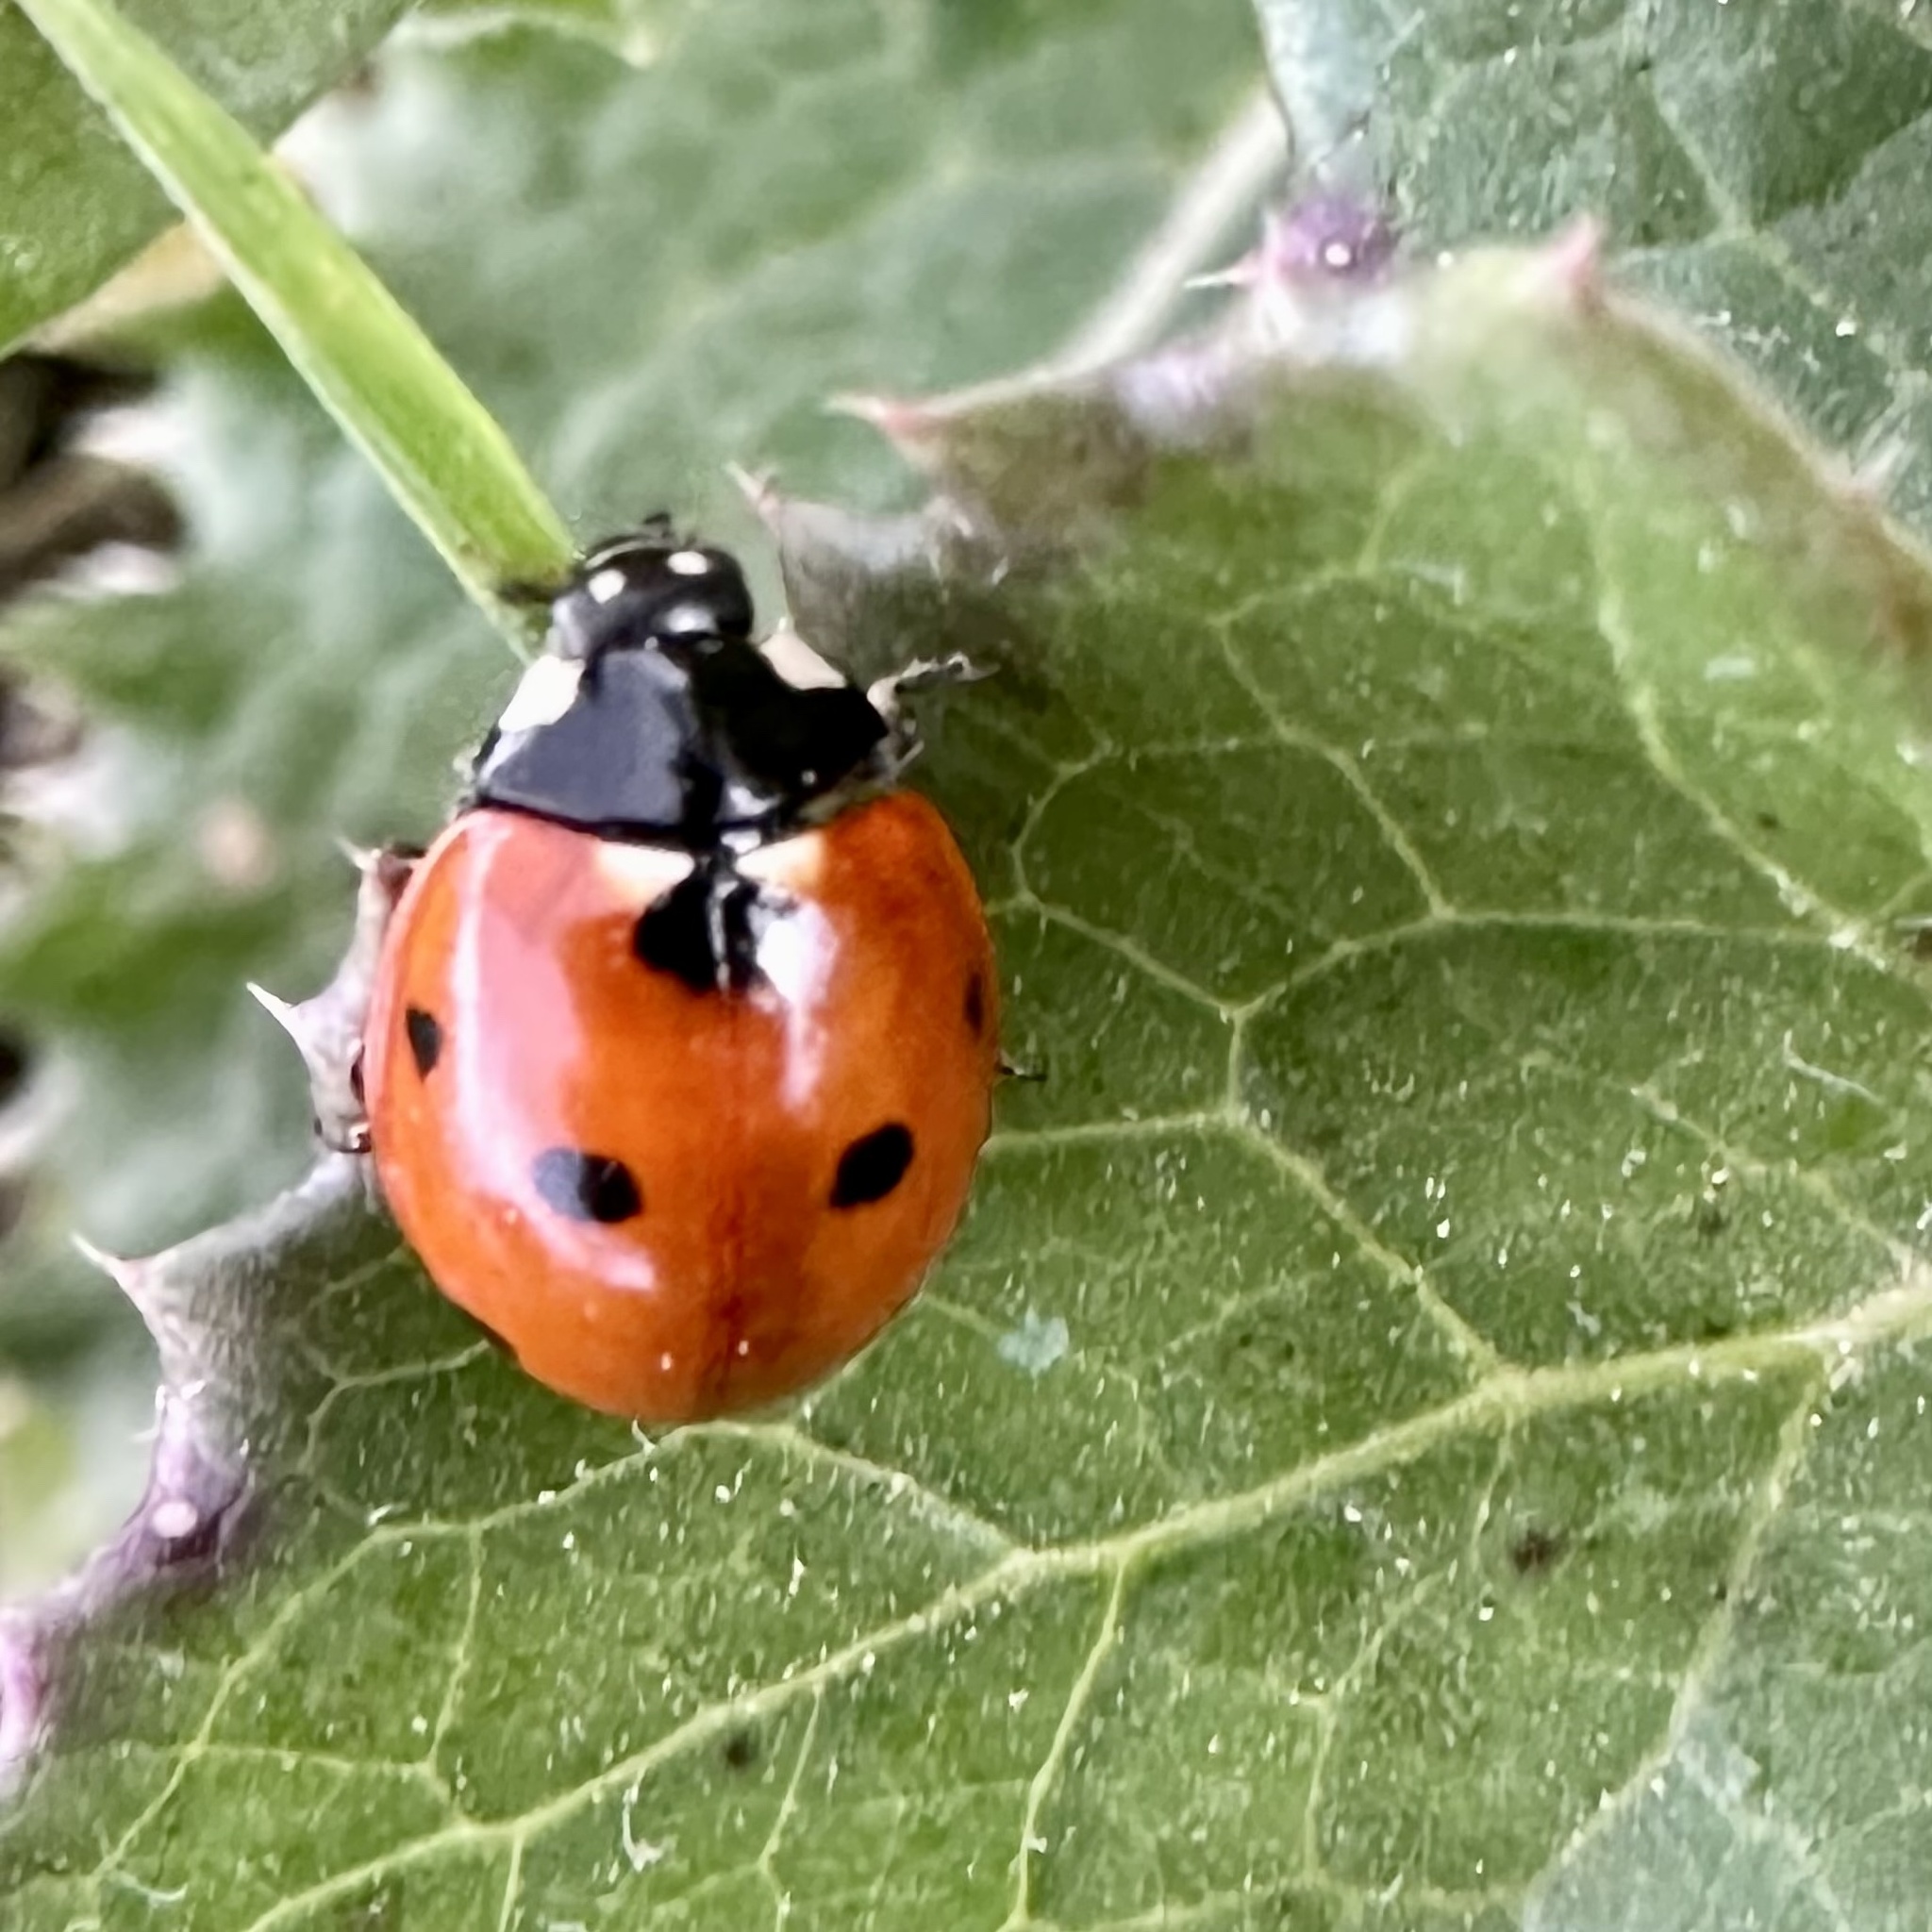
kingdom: Animalia
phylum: Arthropoda
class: Insecta
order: Coleoptera
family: Coccinellidae
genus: Coccinella
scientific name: Coccinella septempunctata
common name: Sevenspotted lady beetle
